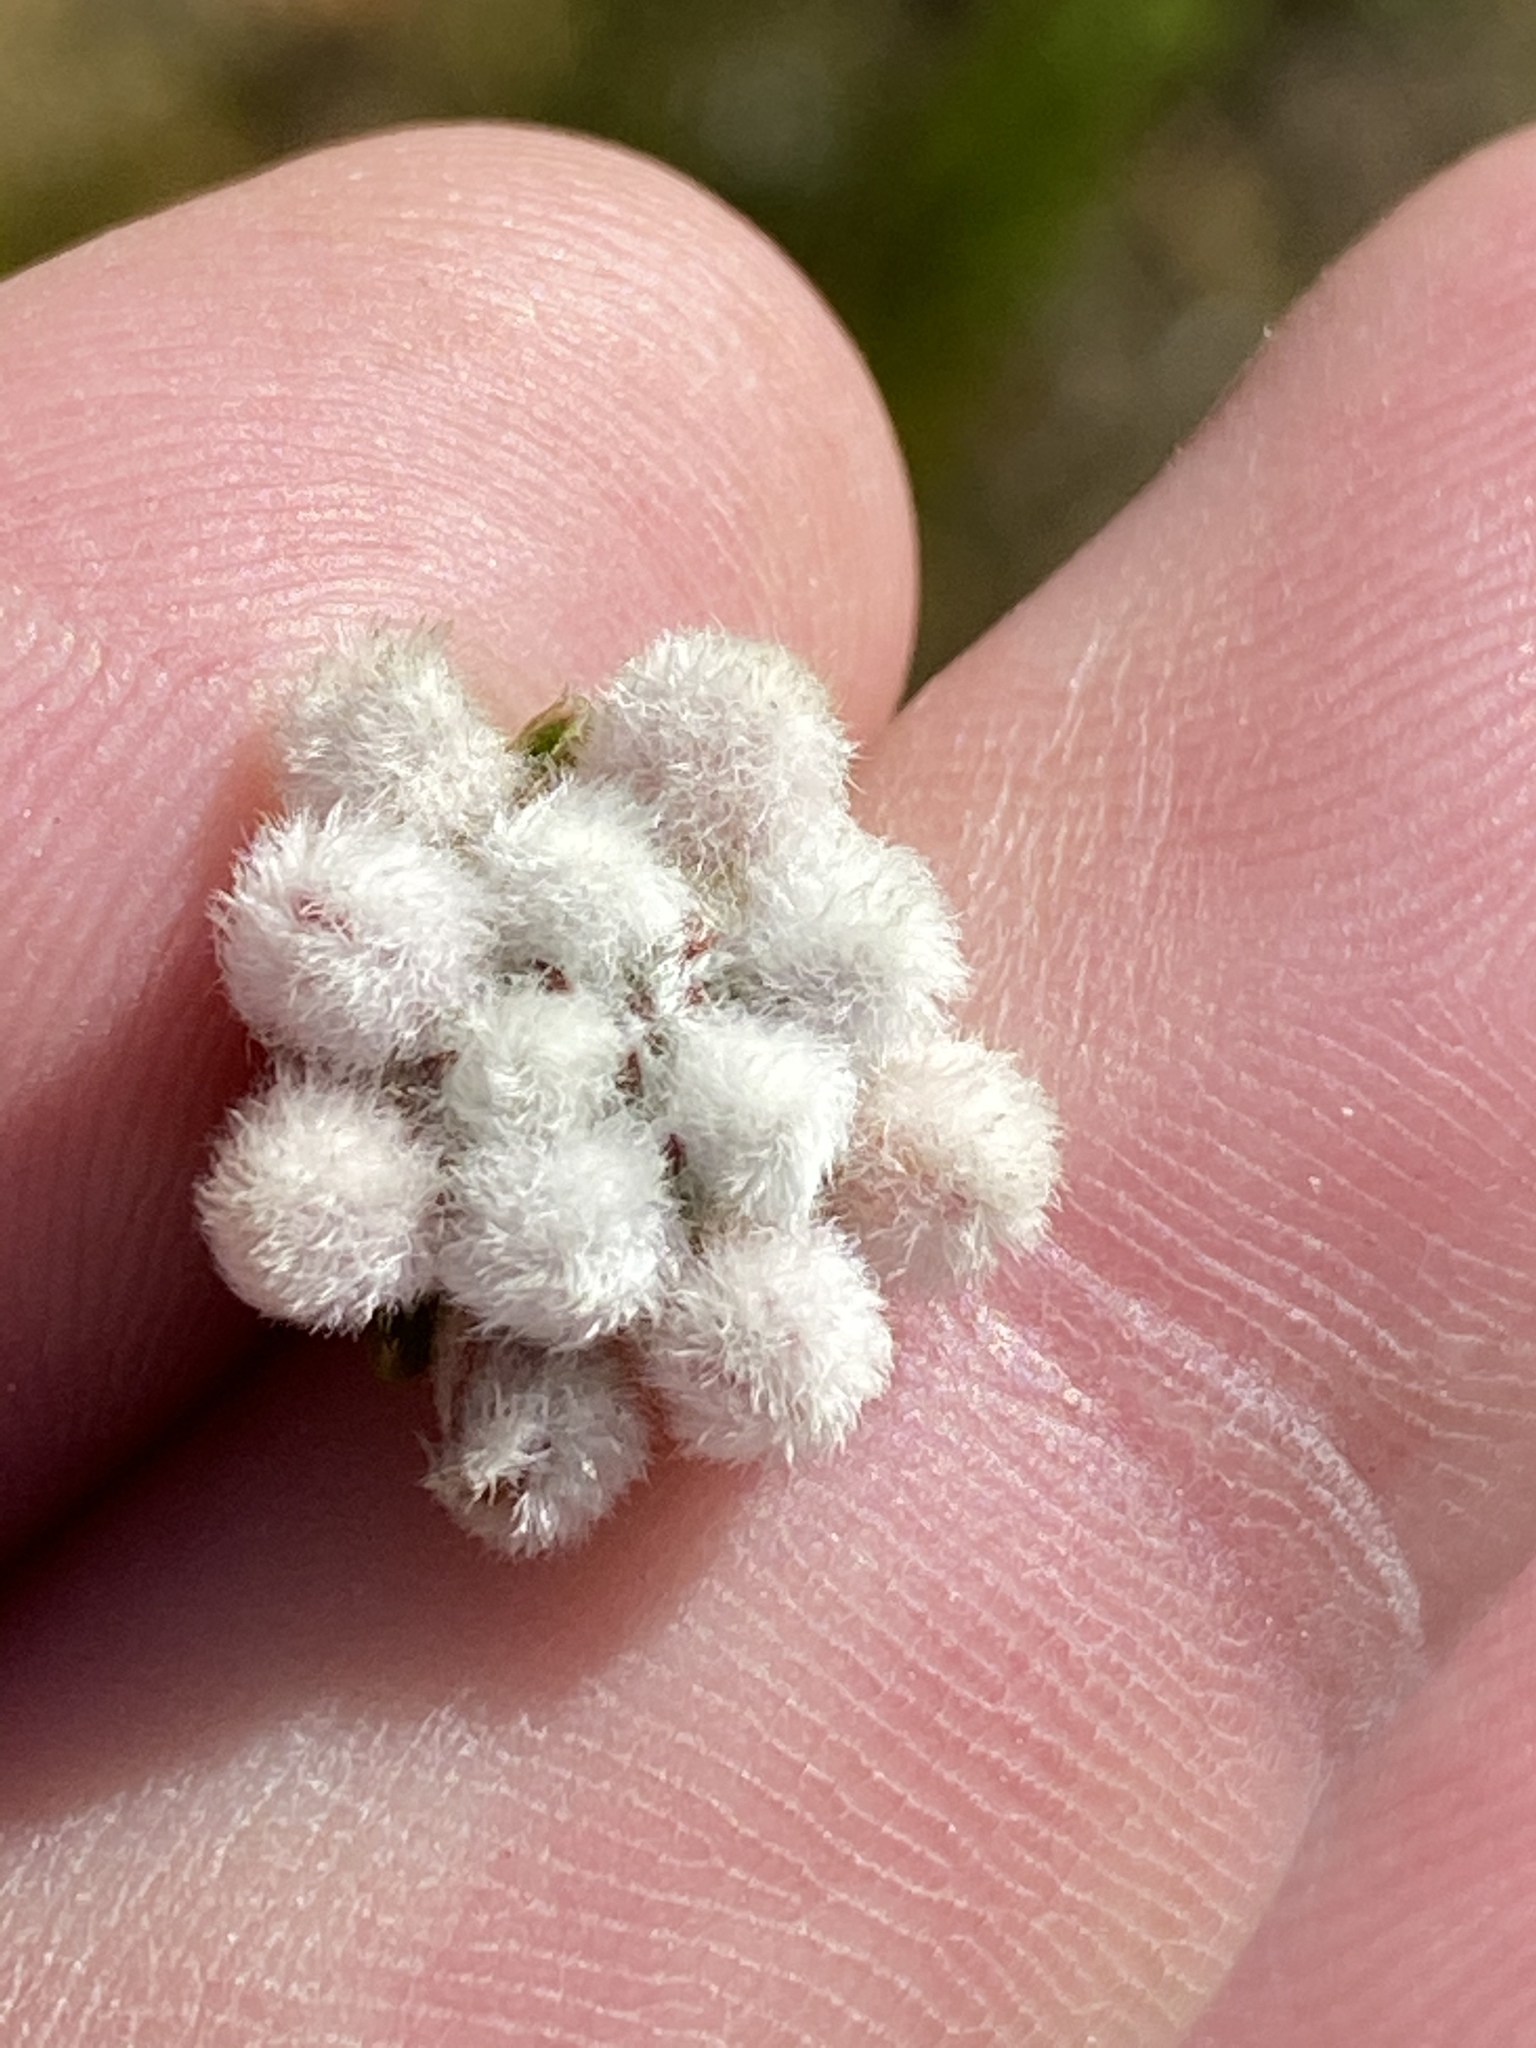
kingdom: Plantae
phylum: Tracheophyta
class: Magnoliopsida
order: Rosales
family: Rhamnaceae
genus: Phylica
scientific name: Phylica purpurea
